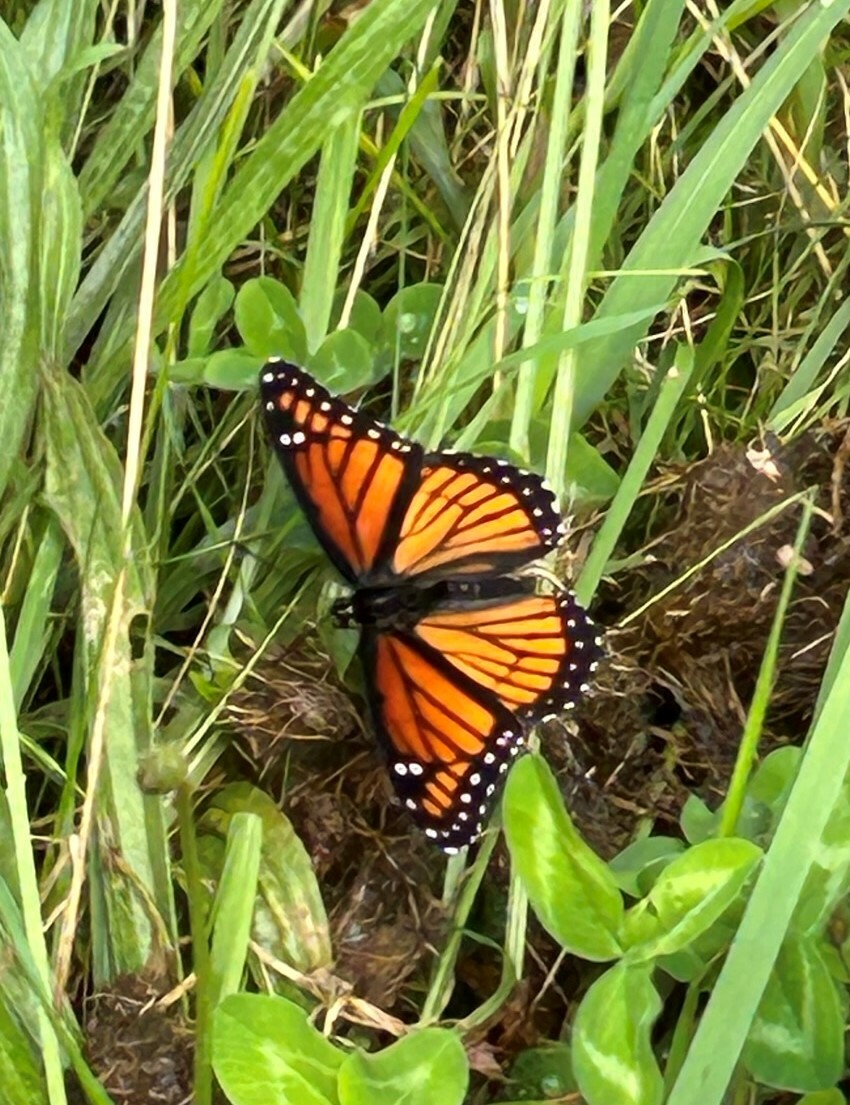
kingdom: Animalia
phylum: Arthropoda
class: Insecta
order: Lepidoptera
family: Nymphalidae
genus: Limenitis
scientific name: Limenitis archippus
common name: Viceroy
